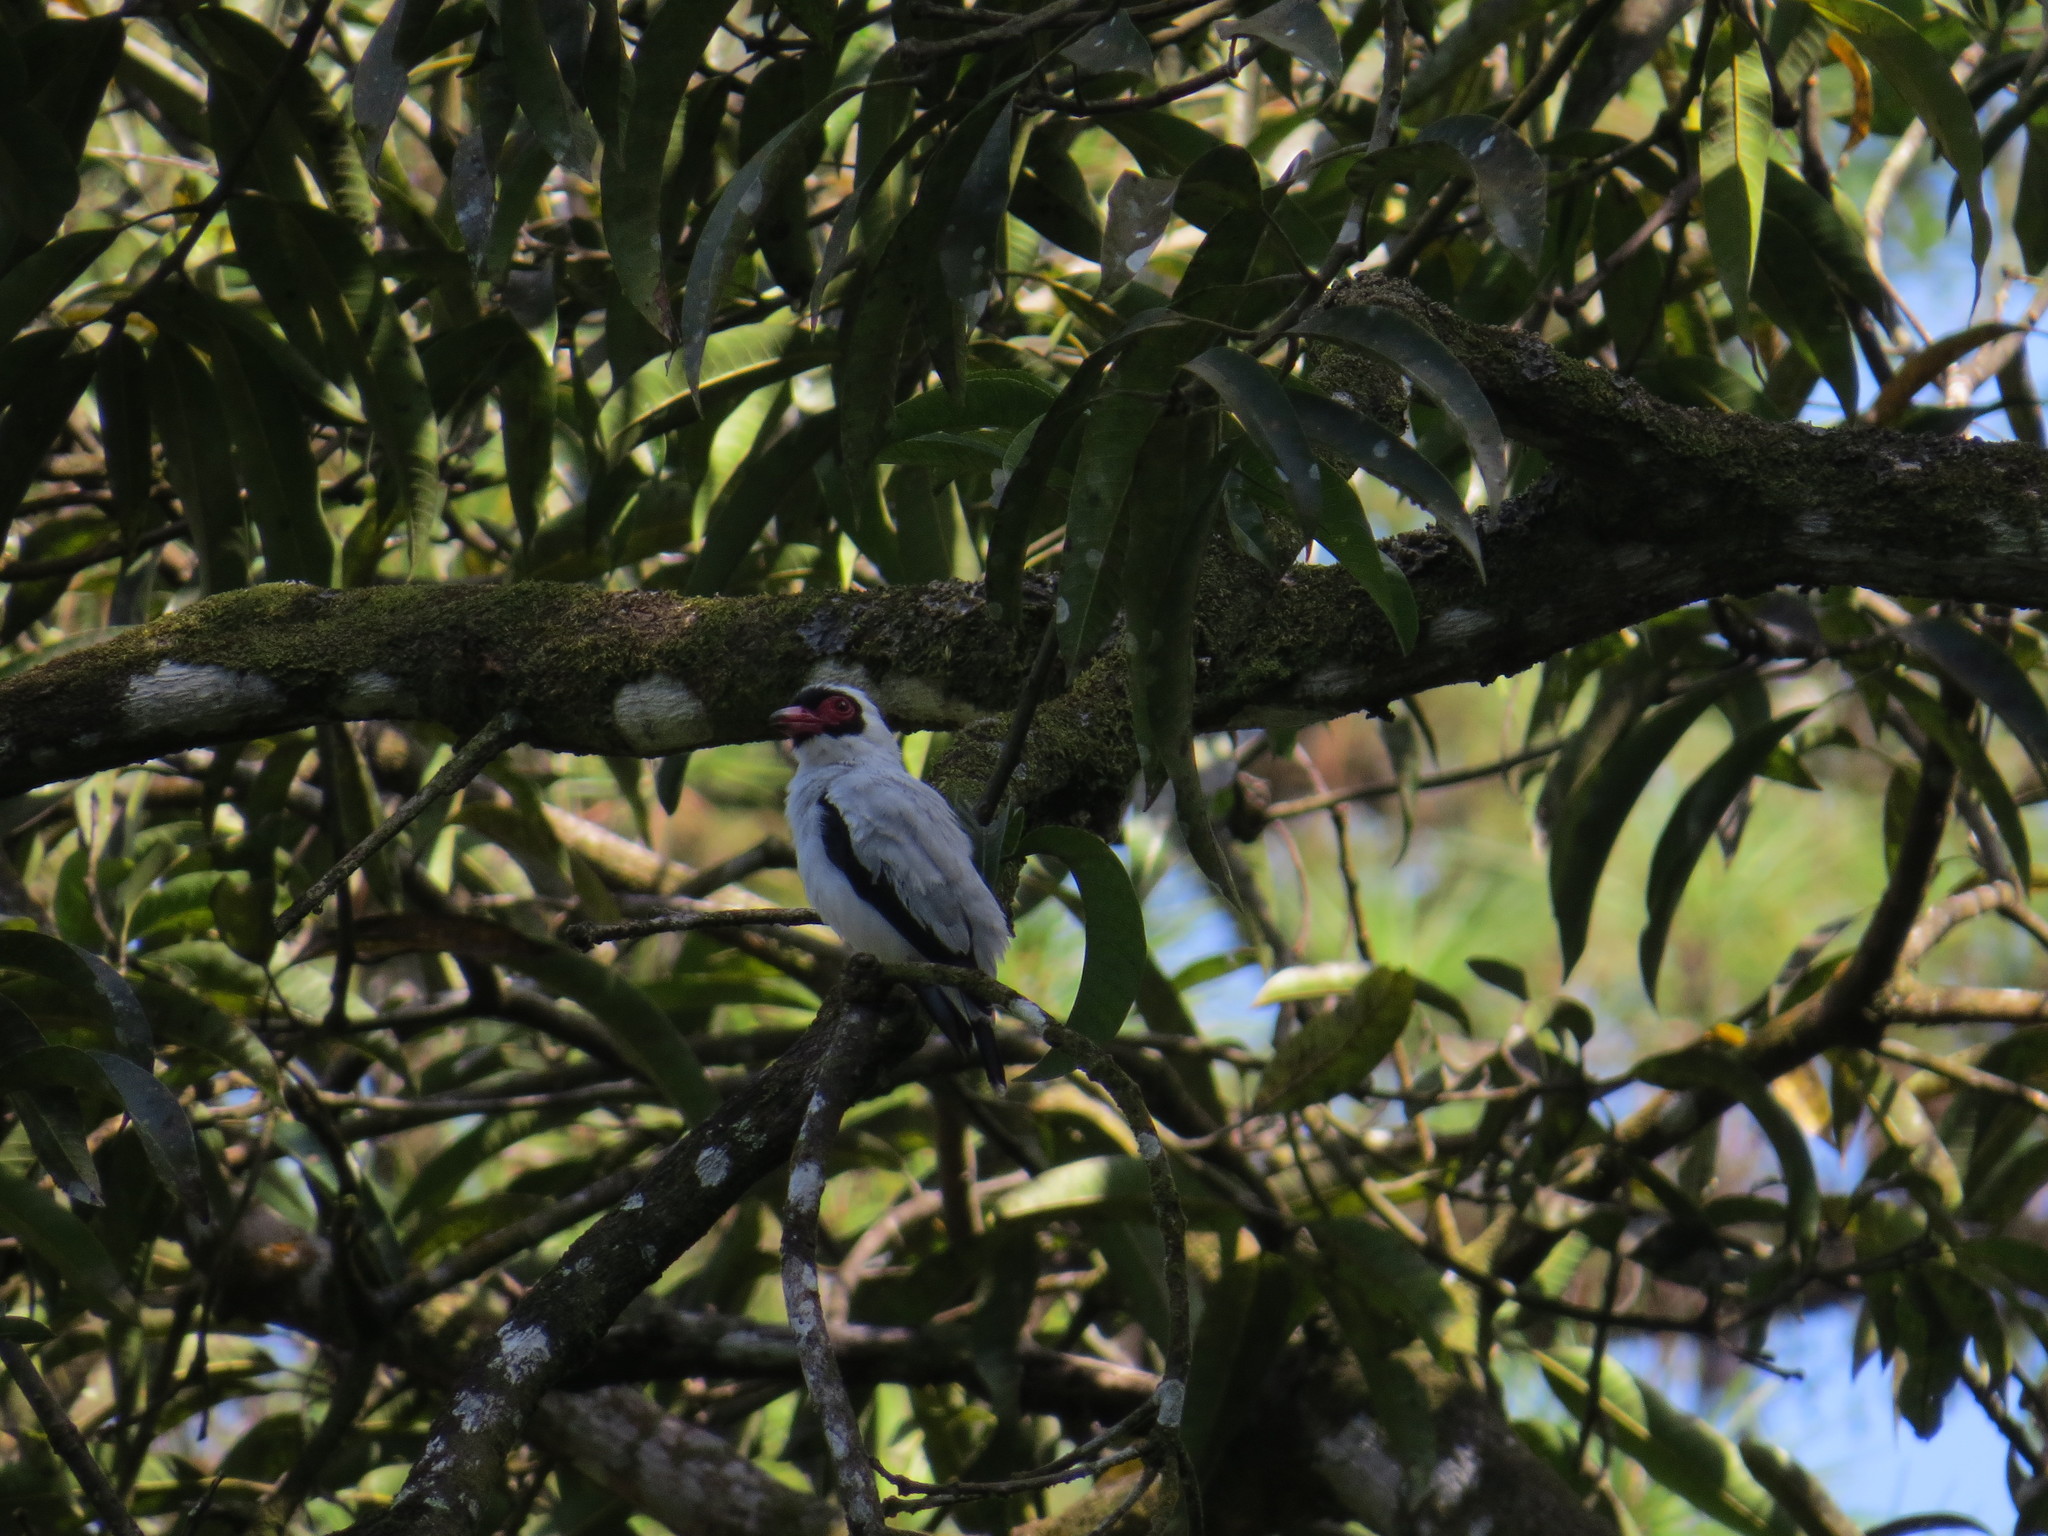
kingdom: Animalia
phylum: Chordata
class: Aves
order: Passeriformes
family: Cotingidae
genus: Tityra
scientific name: Tityra semifasciata
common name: Masked tityra
